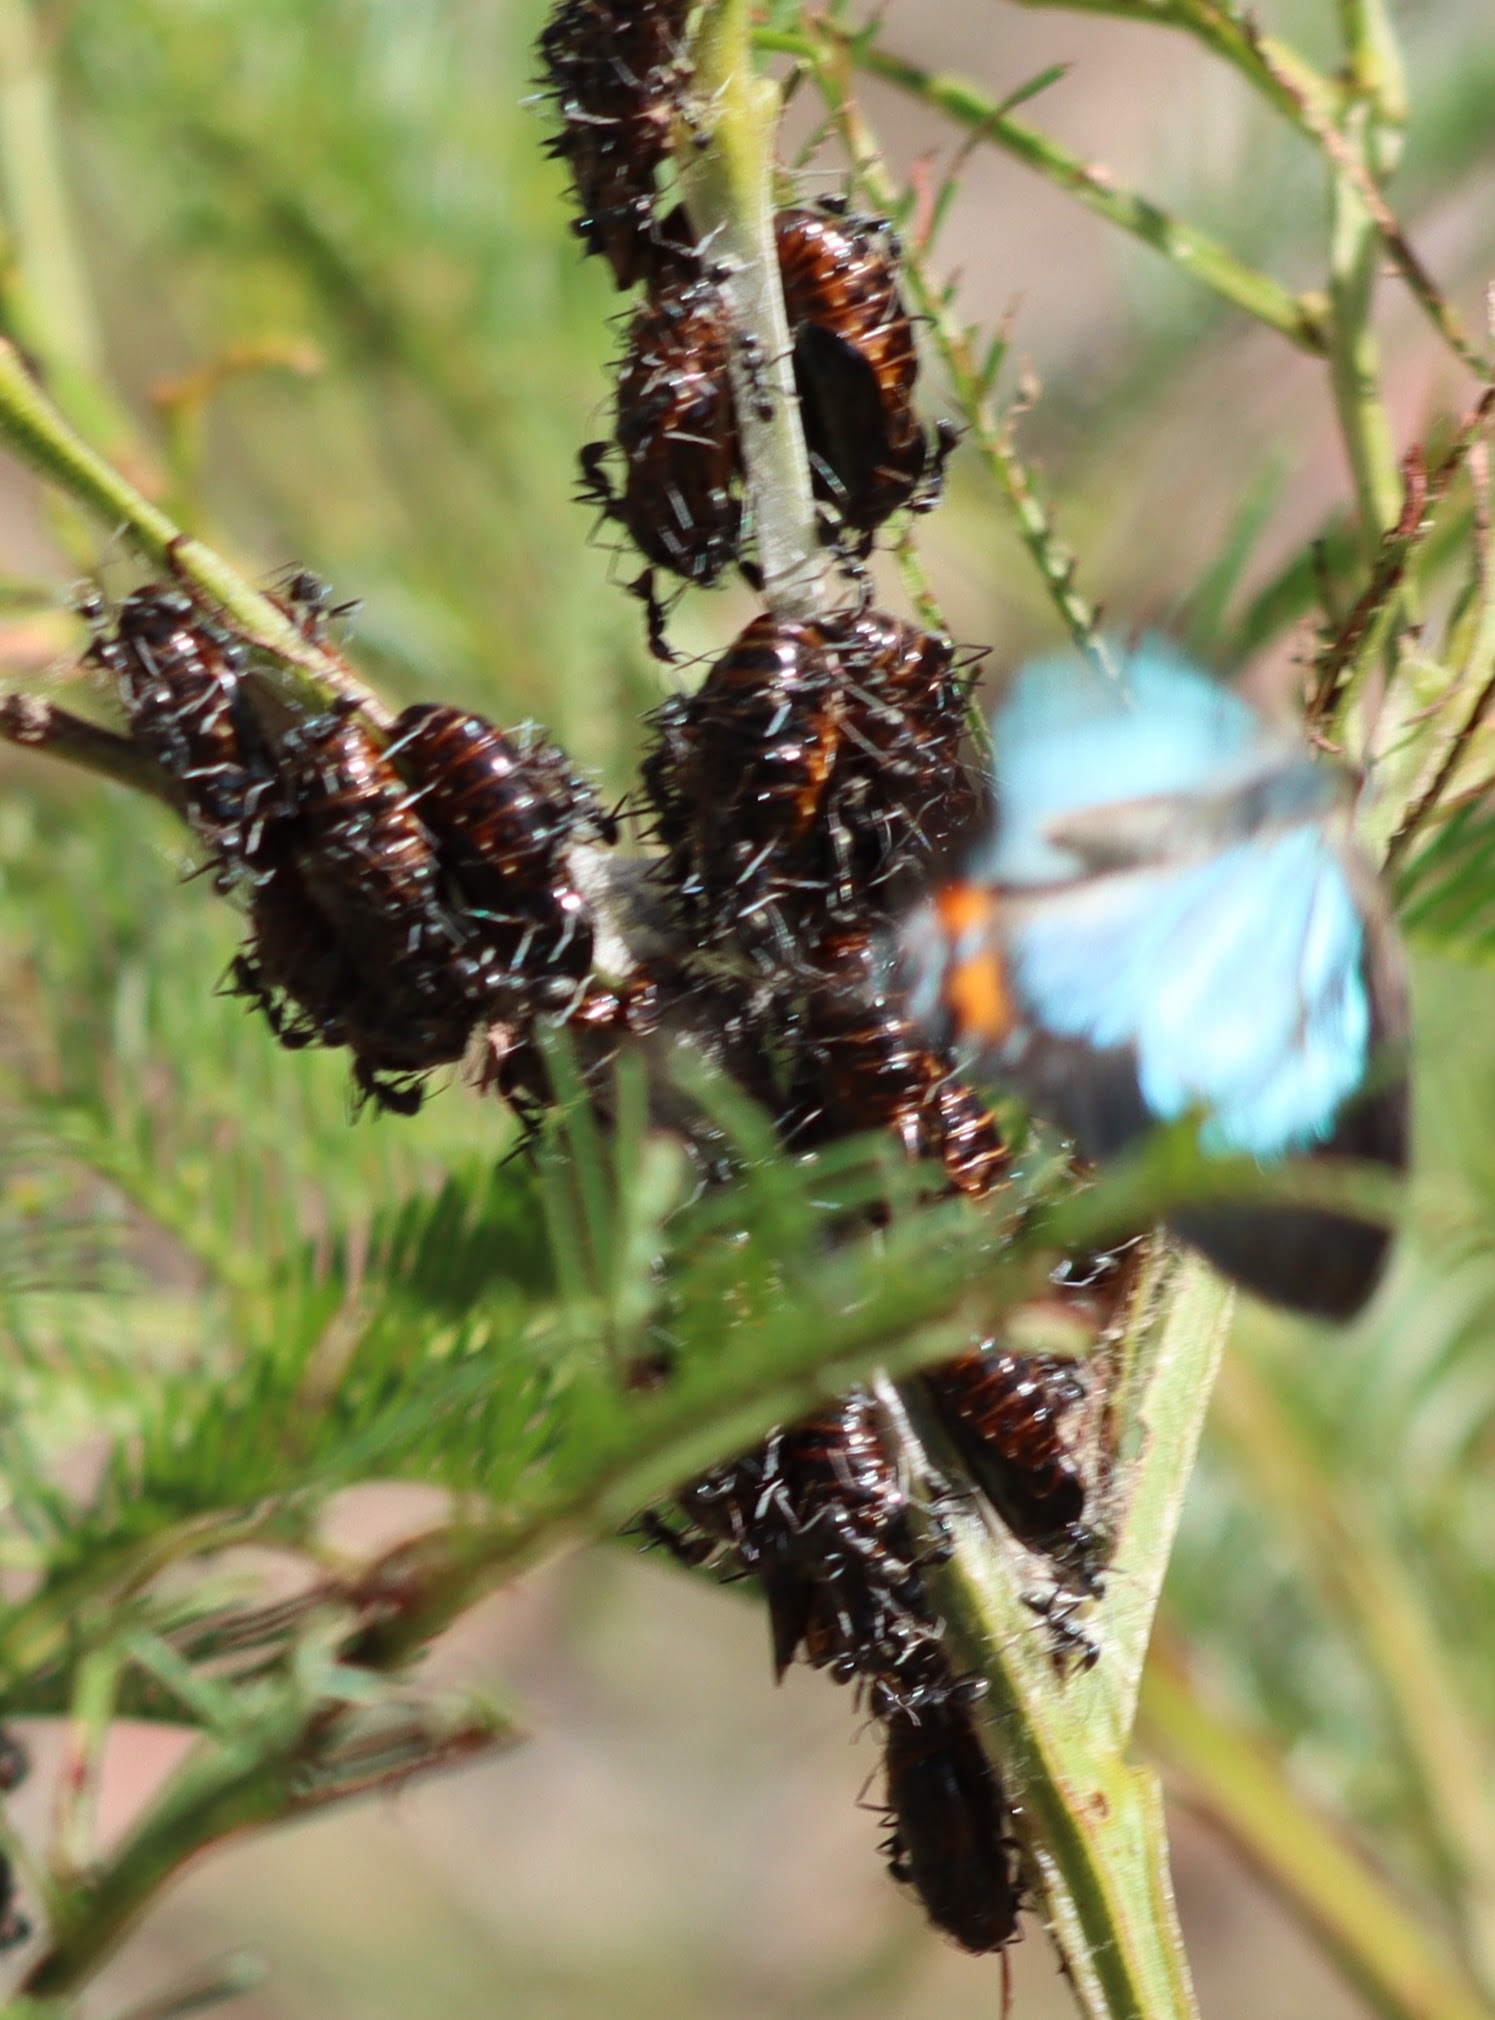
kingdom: Animalia
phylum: Arthropoda
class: Insecta
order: Lepidoptera
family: Lycaenidae
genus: Jalmenus
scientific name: Jalmenus evagoras
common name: Common imperial blue
